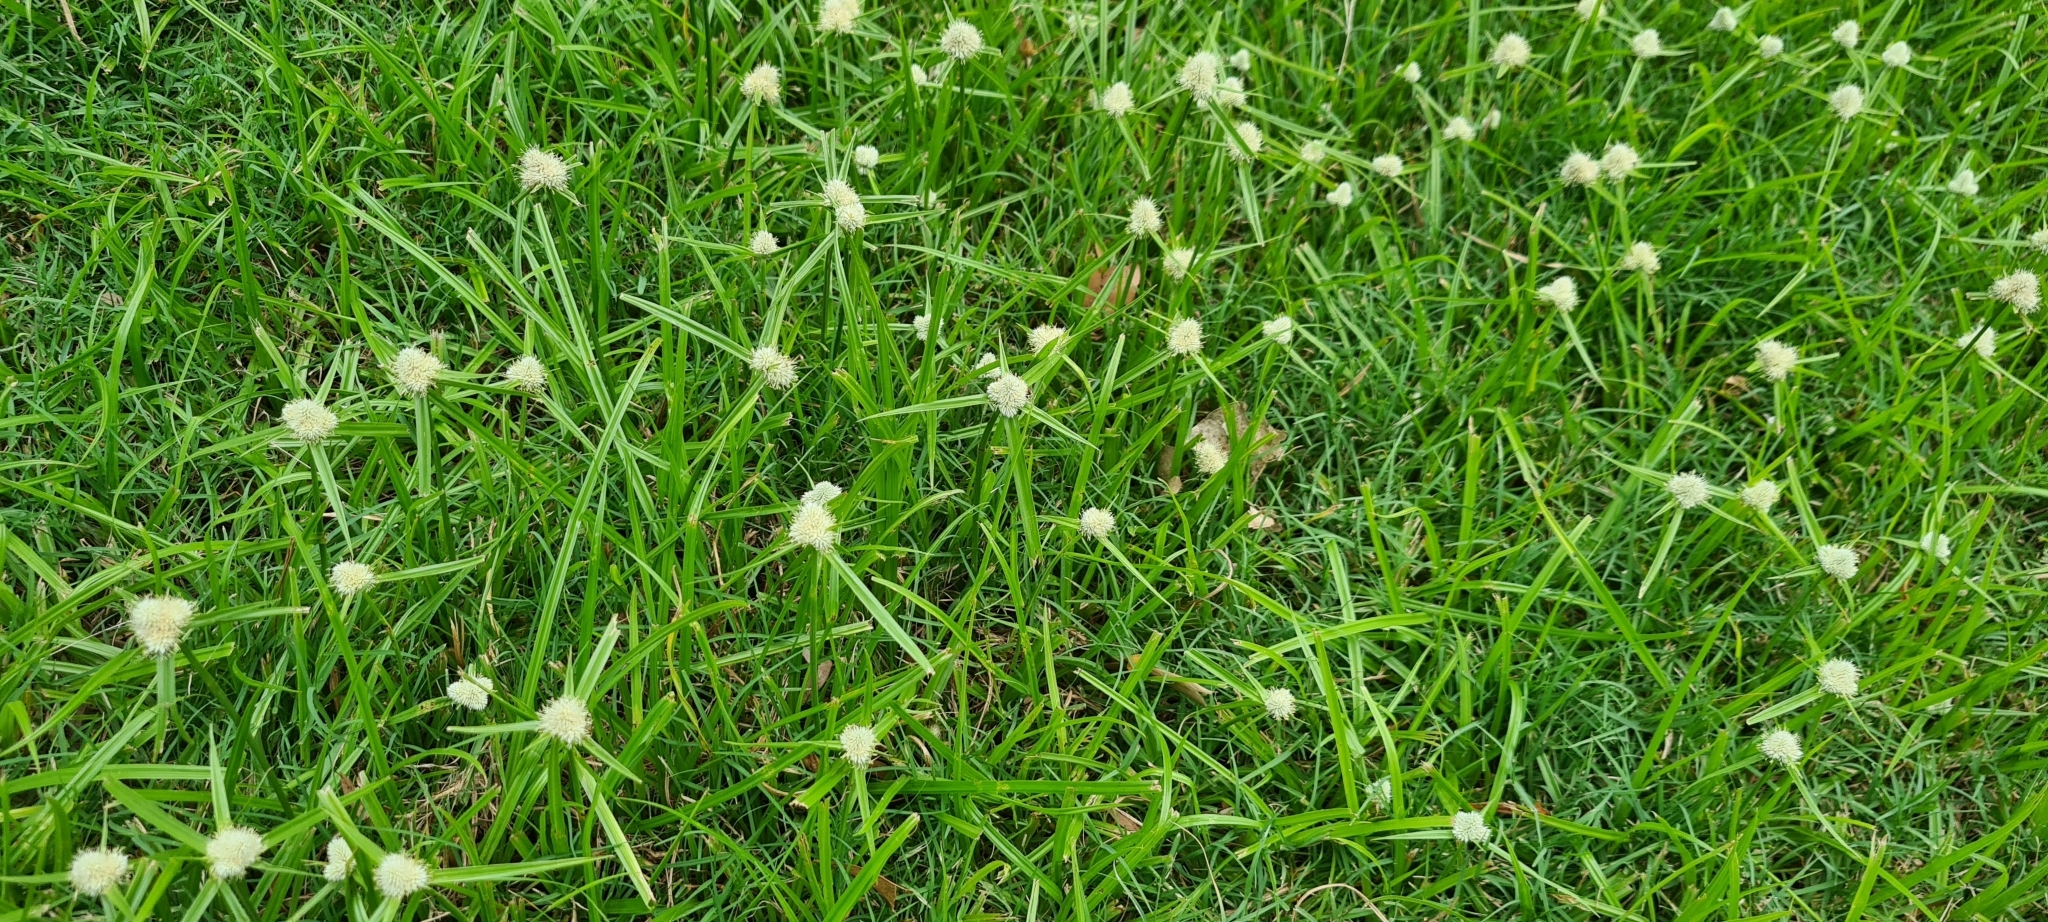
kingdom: Plantae
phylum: Tracheophyta
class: Liliopsida
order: Poales
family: Cyperaceae
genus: Cyperus
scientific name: Cyperus sesquiflorus
